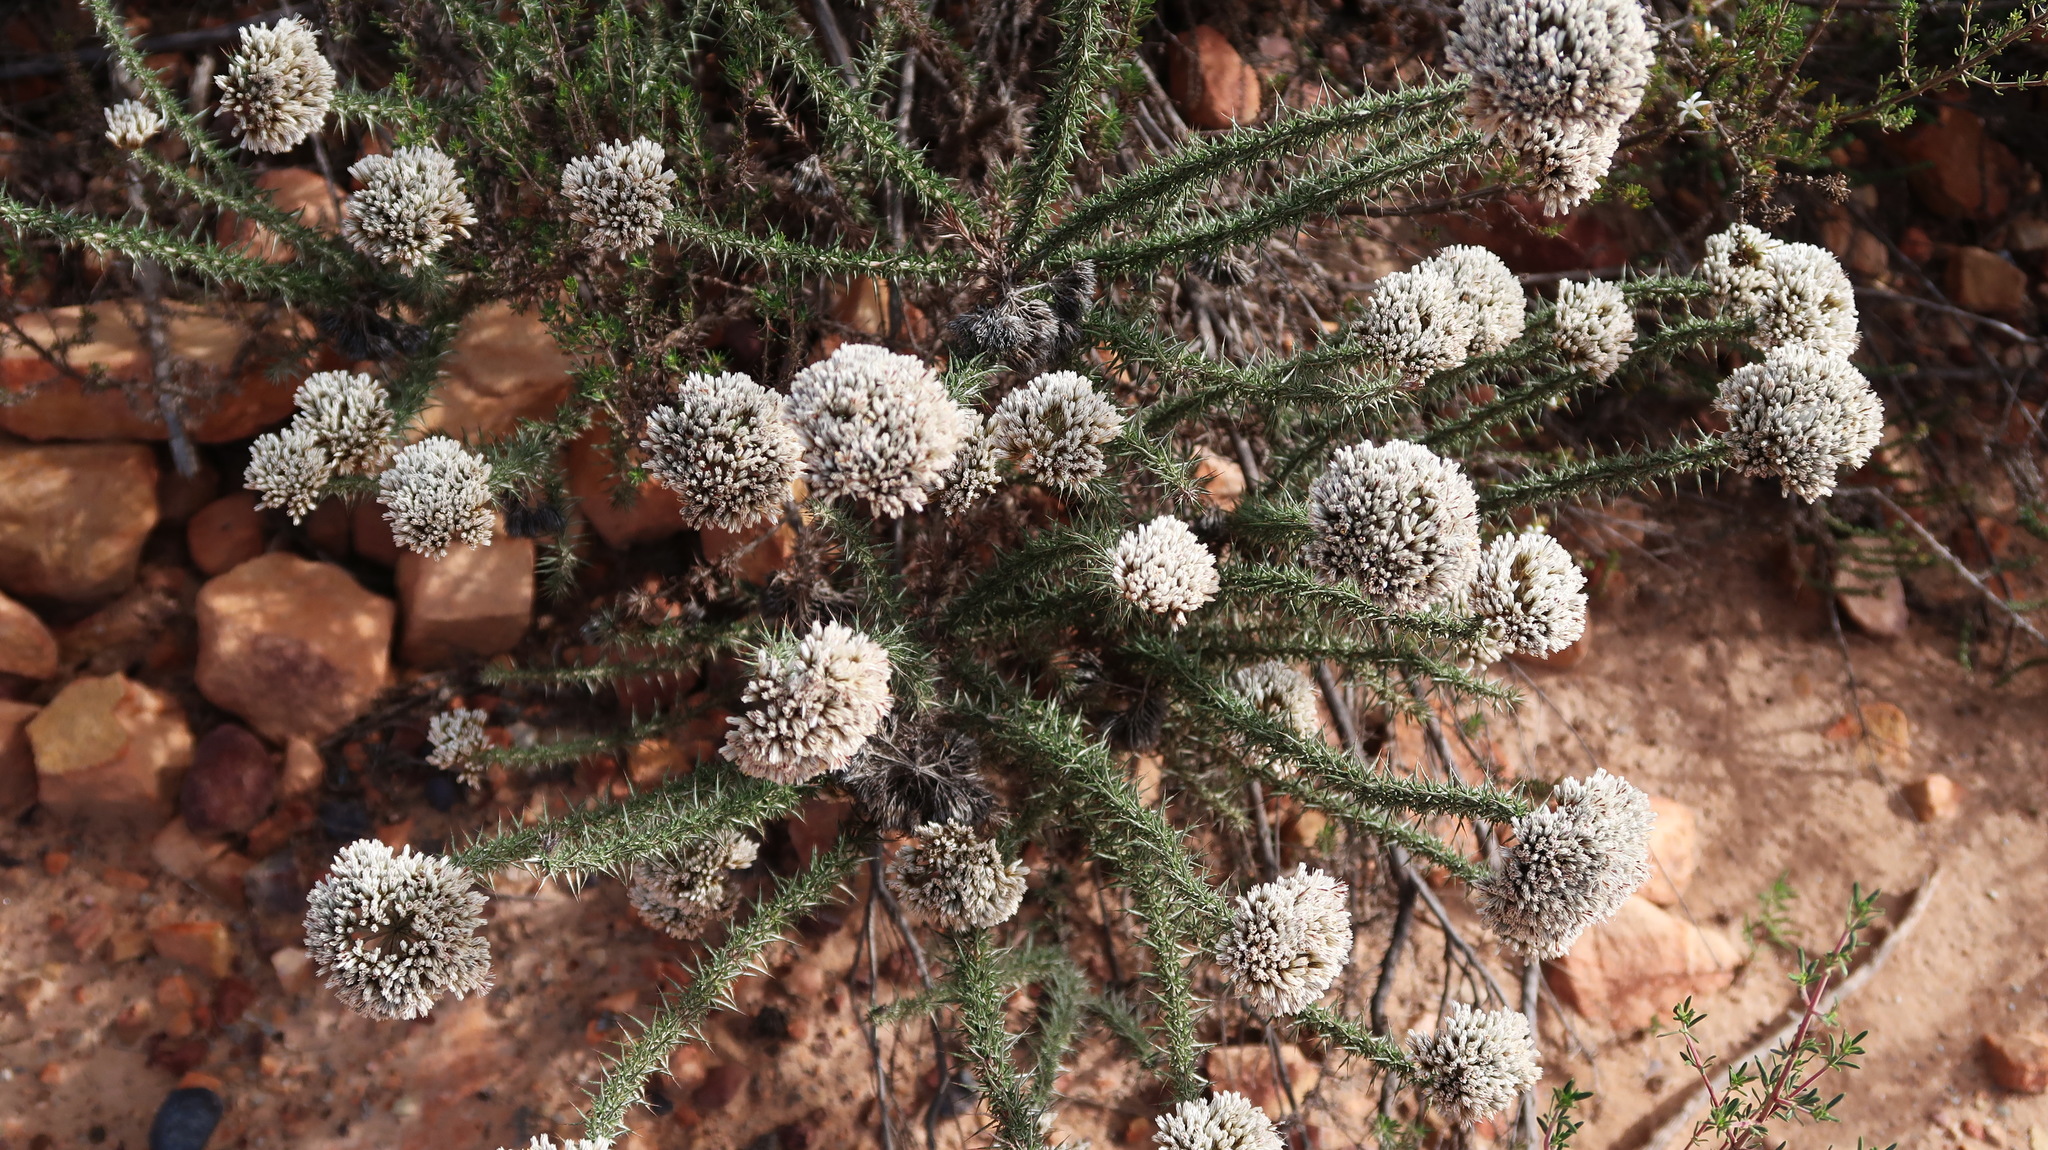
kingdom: Plantae
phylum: Tracheophyta
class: Magnoliopsida
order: Asterales
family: Asteraceae
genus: Metalasia
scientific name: Metalasia acuta
